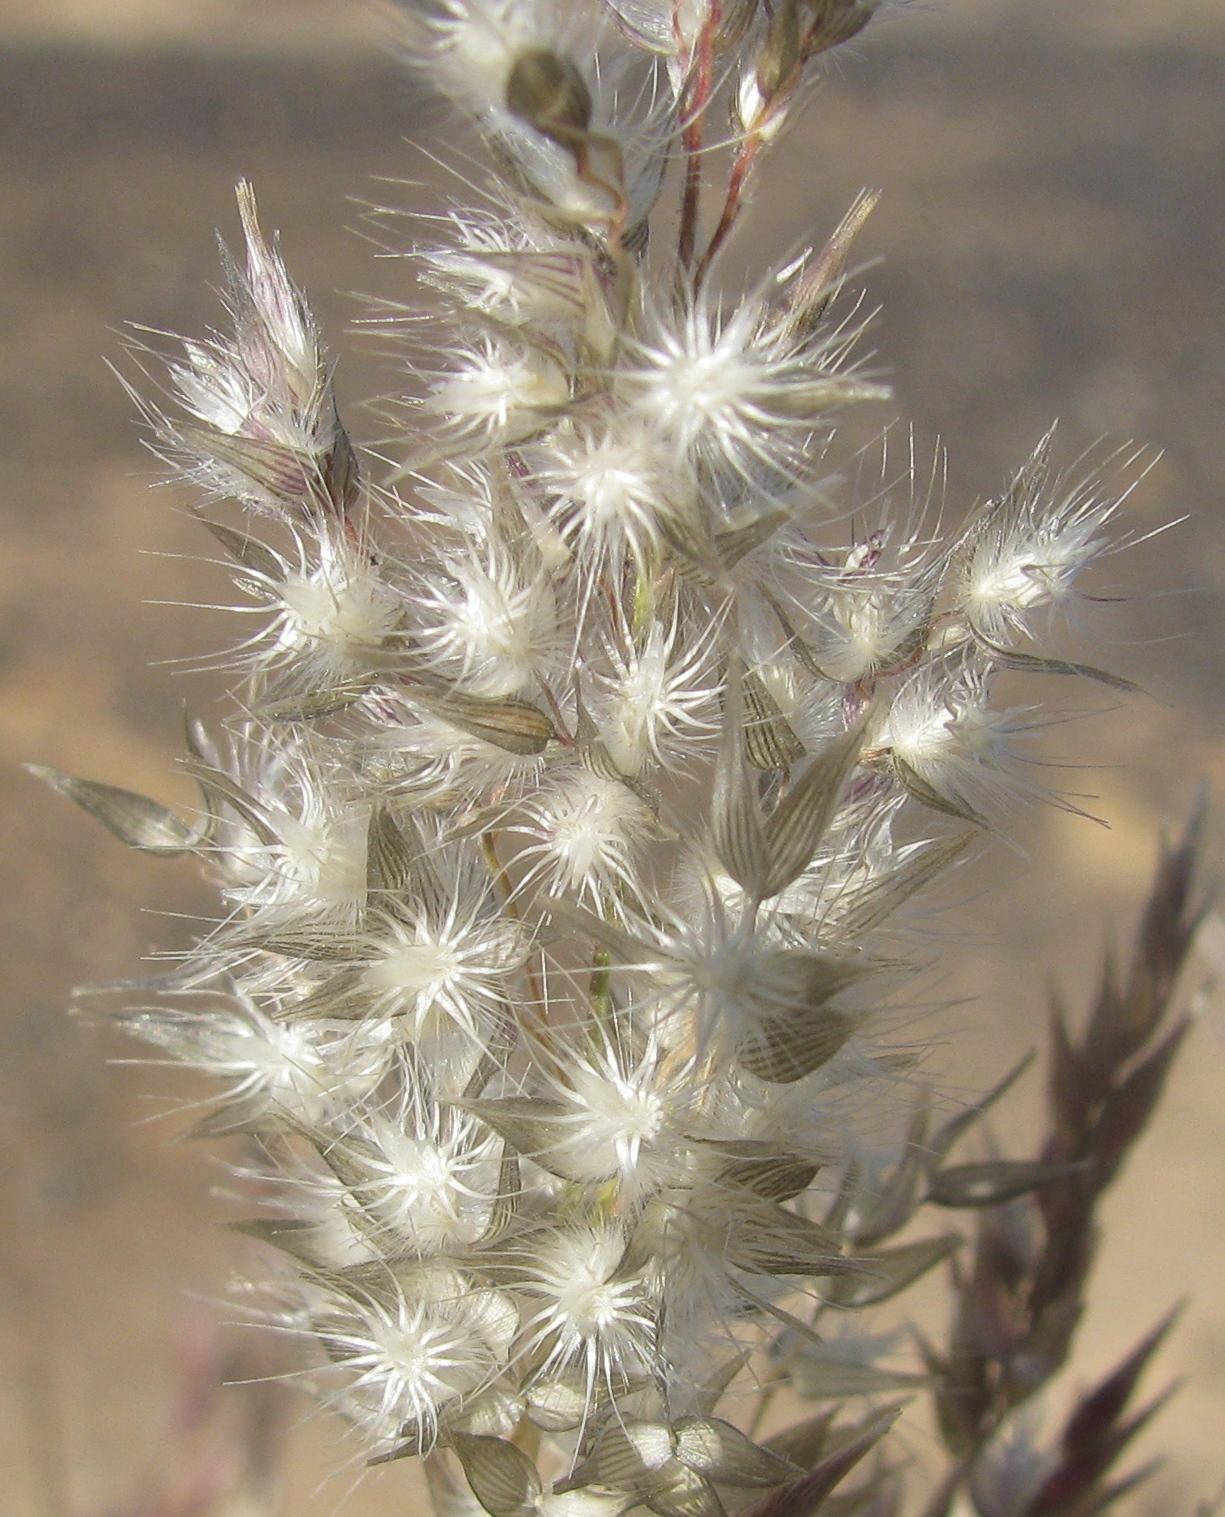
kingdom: Plantae
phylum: Tracheophyta
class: Liliopsida
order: Poales
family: Poaceae
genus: Enneapogon
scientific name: Enneapogon scaber
